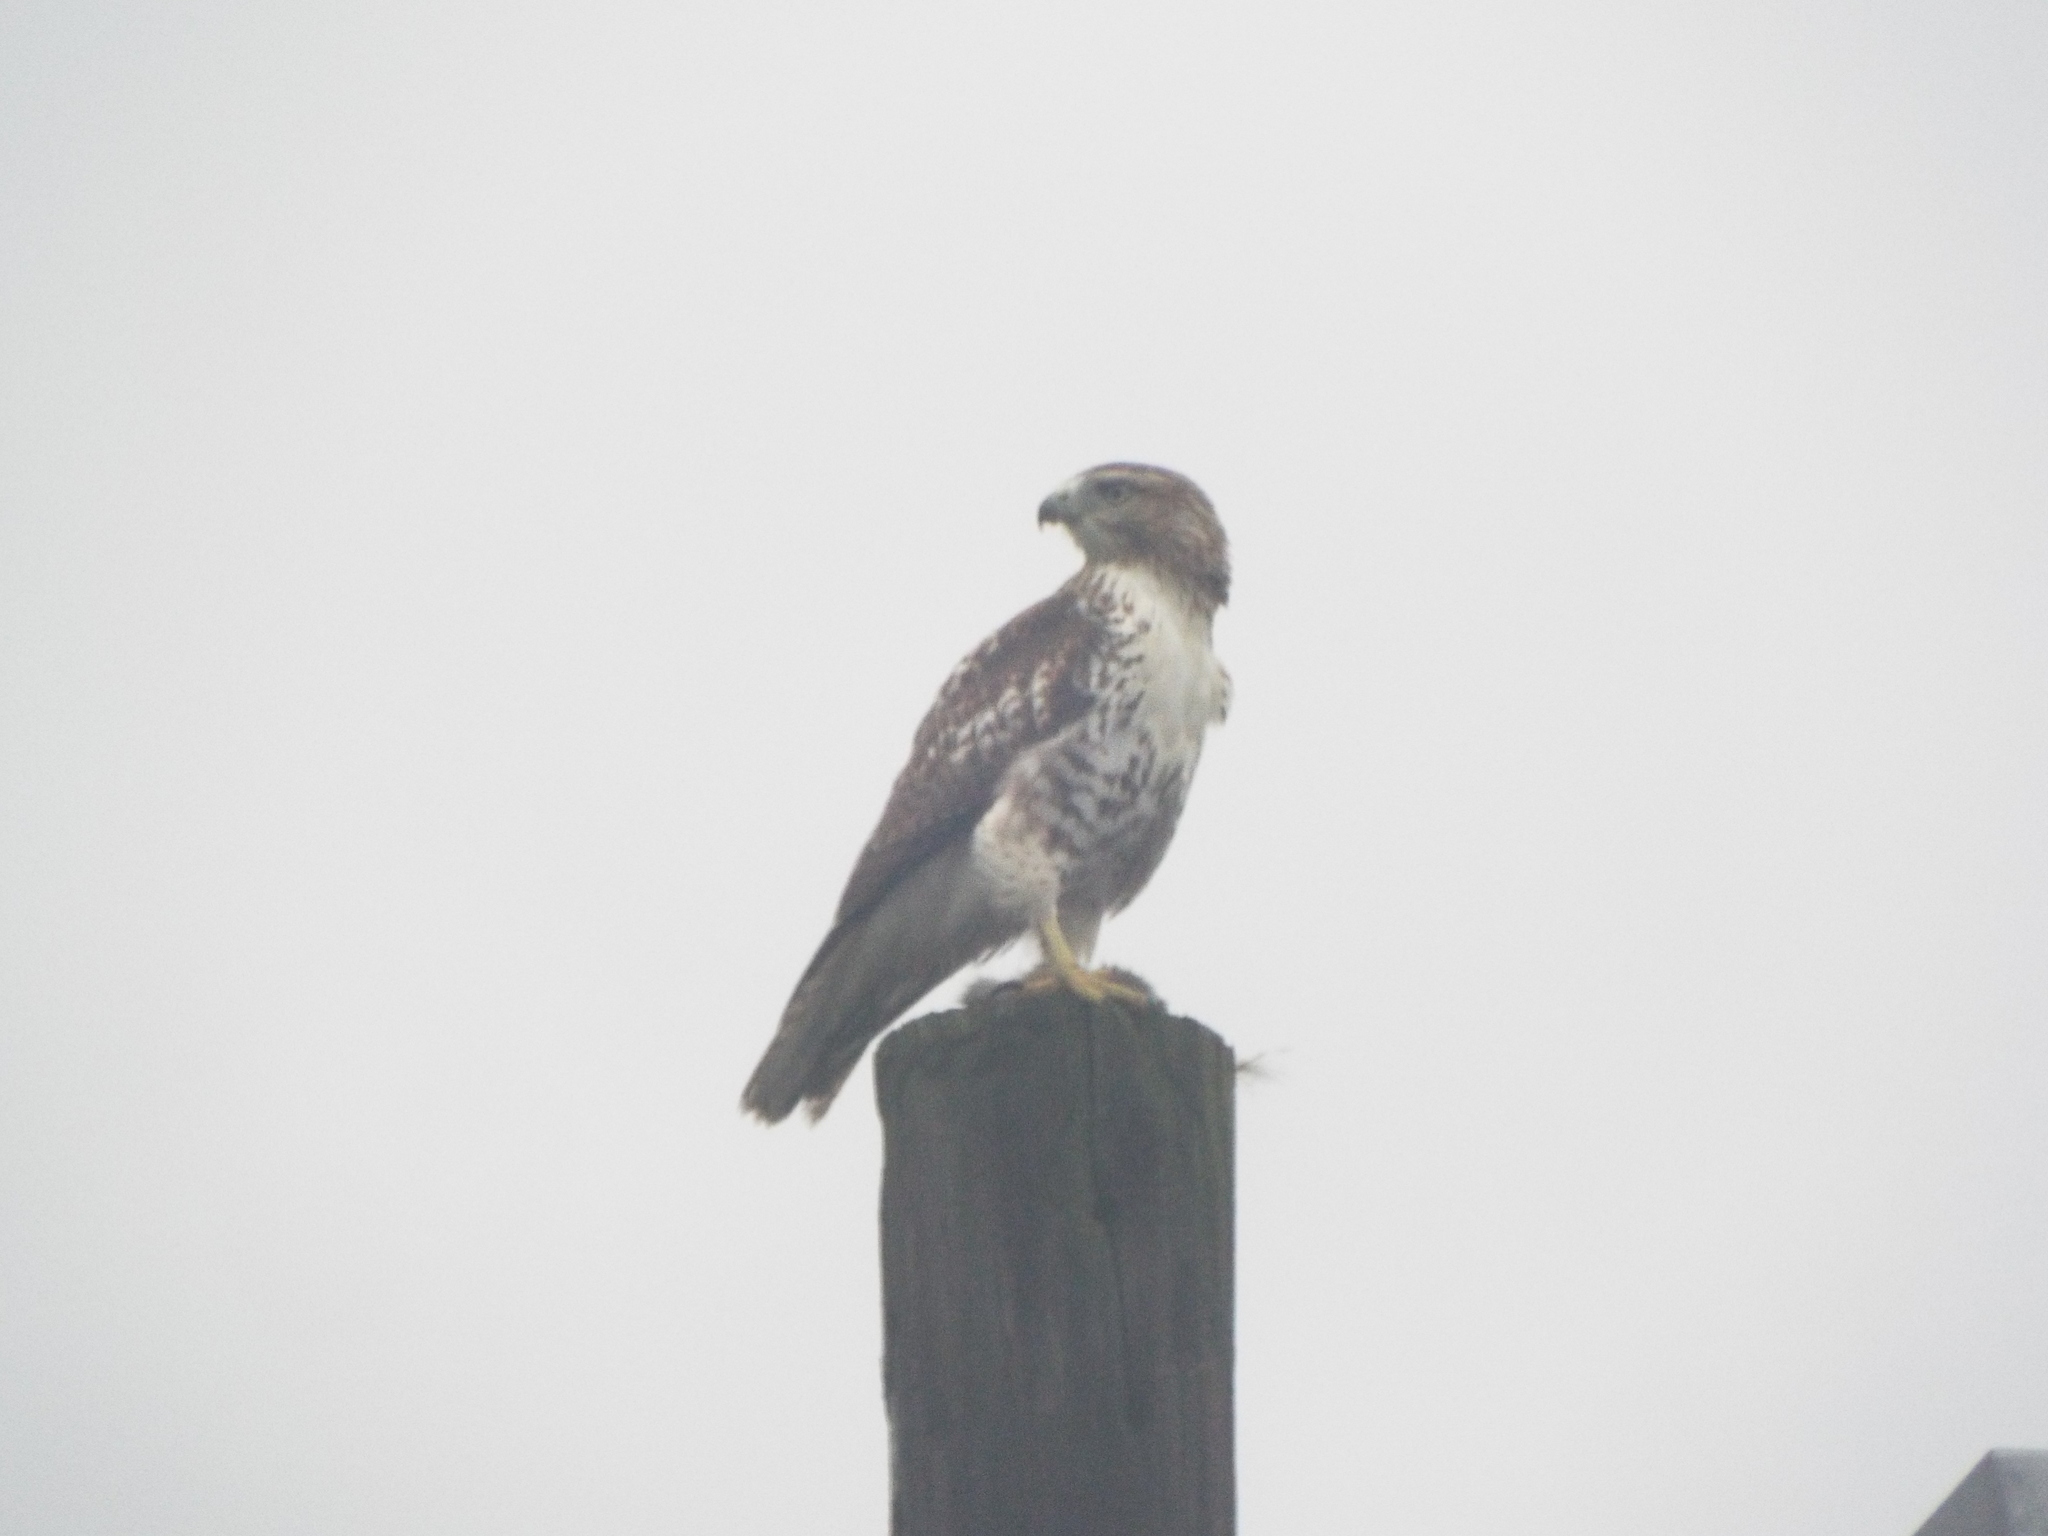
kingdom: Animalia
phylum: Chordata
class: Aves
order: Accipitriformes
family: Accipitridae
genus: Buteo
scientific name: Buteo jamaicensis
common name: Red-tailed hawk
